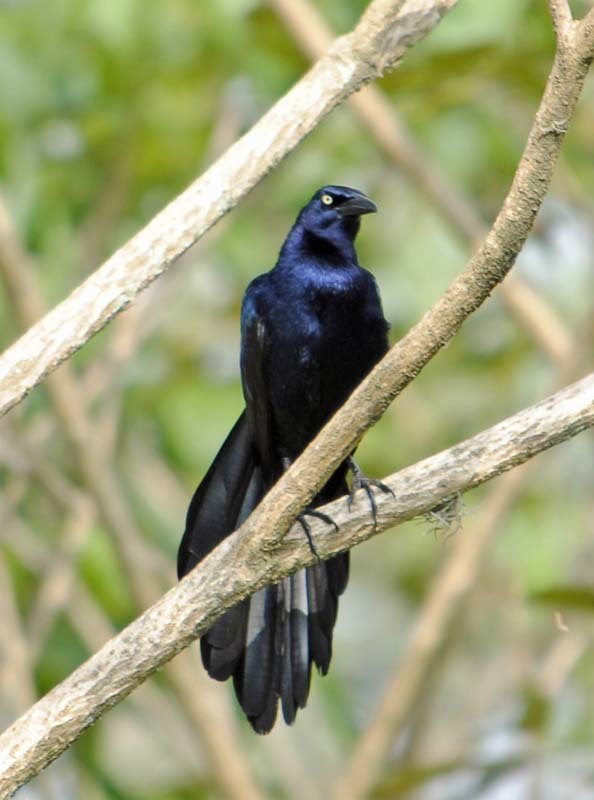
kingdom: Animalia
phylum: Chordata
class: Aves
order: Passeriformes
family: Icteridae
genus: Quiscalus
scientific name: Quiscalus mexicanus
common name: Great-tailed grackle
